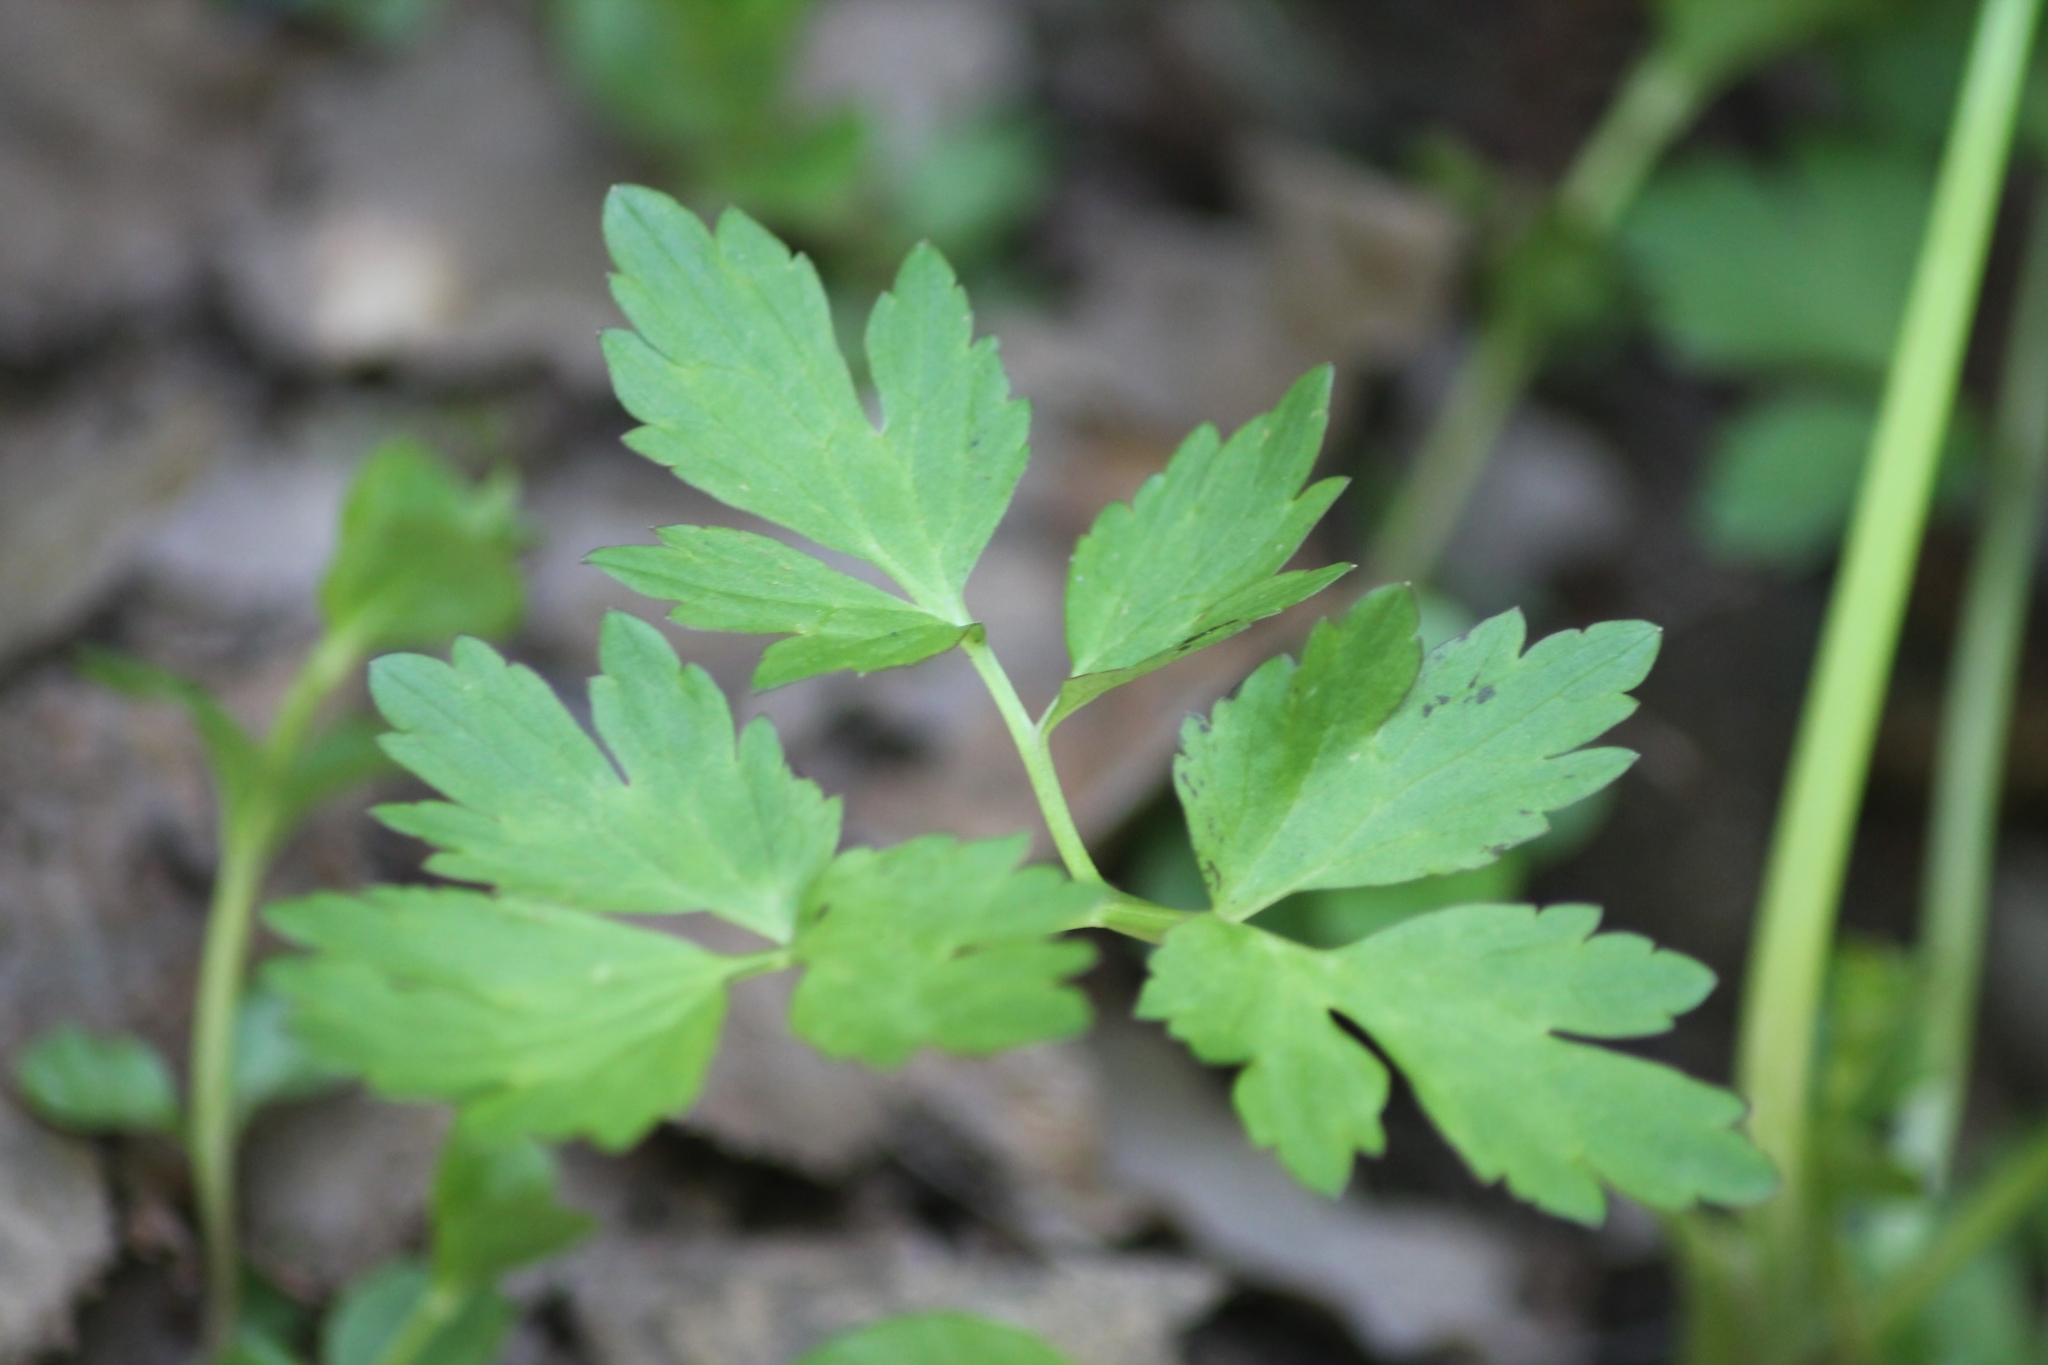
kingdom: Plantae
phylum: Tracheophyta
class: Magnoliopsida
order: Ranunculales
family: Ranunculaceae
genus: Ranunculus
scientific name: Ranunculus repens
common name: Creeping buttercup
